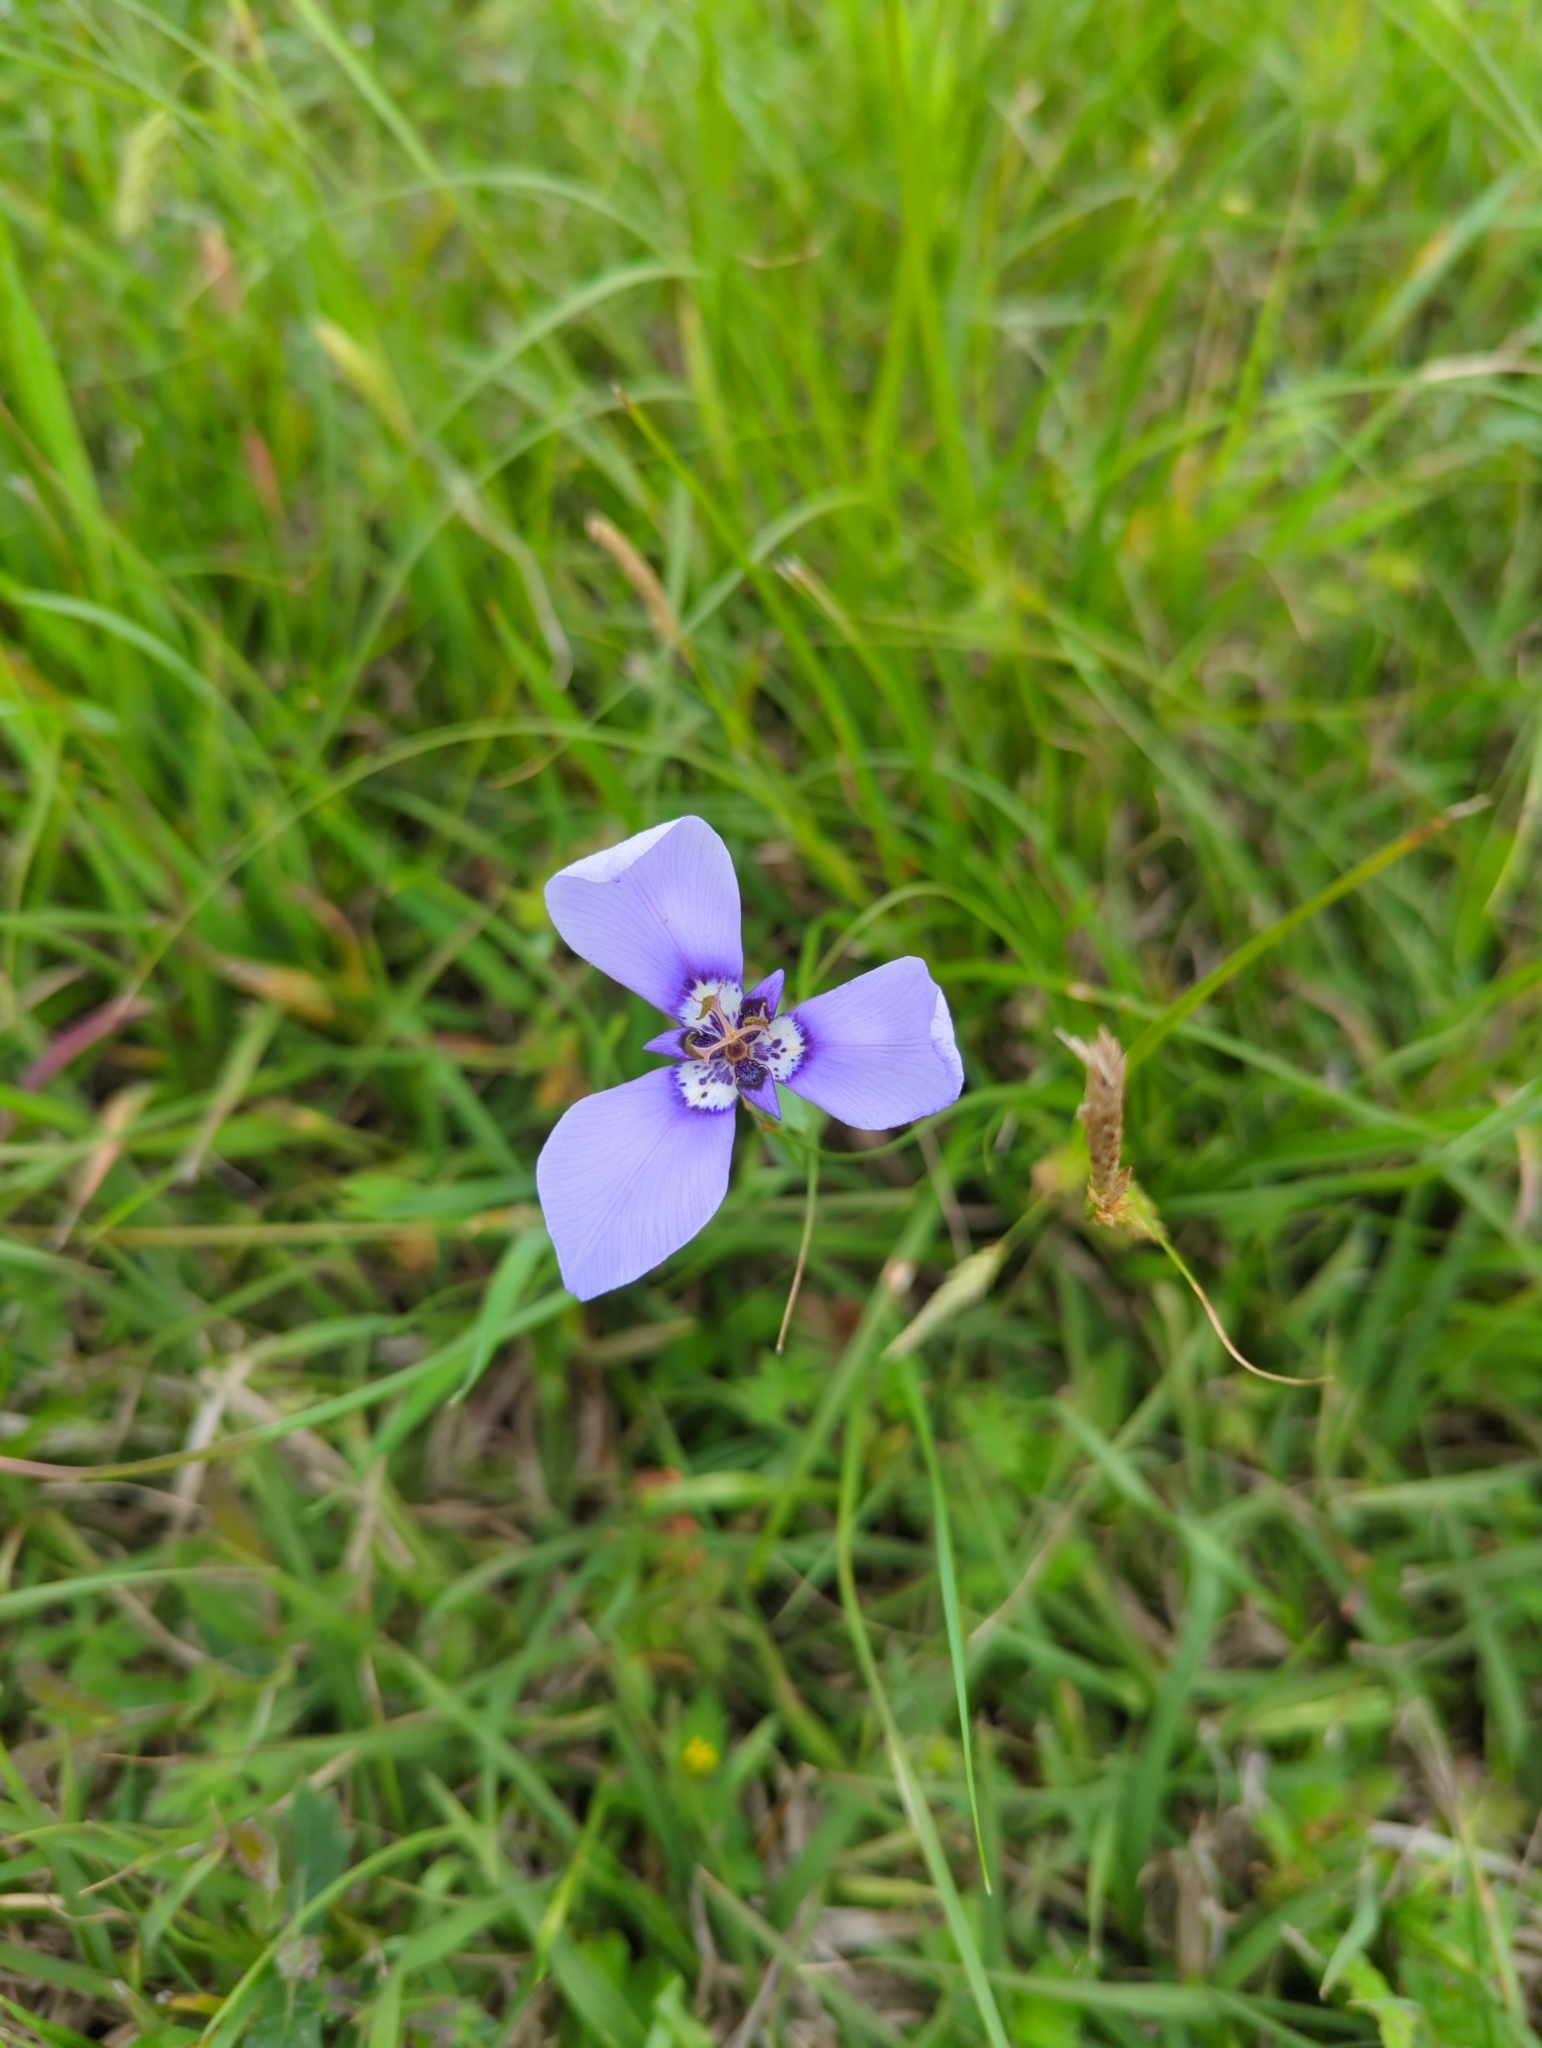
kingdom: Plantae
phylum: Tracheophyta
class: Liliopsida
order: Asparagales
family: Iridaceae
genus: Herbertia
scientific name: Herbertia lahue
